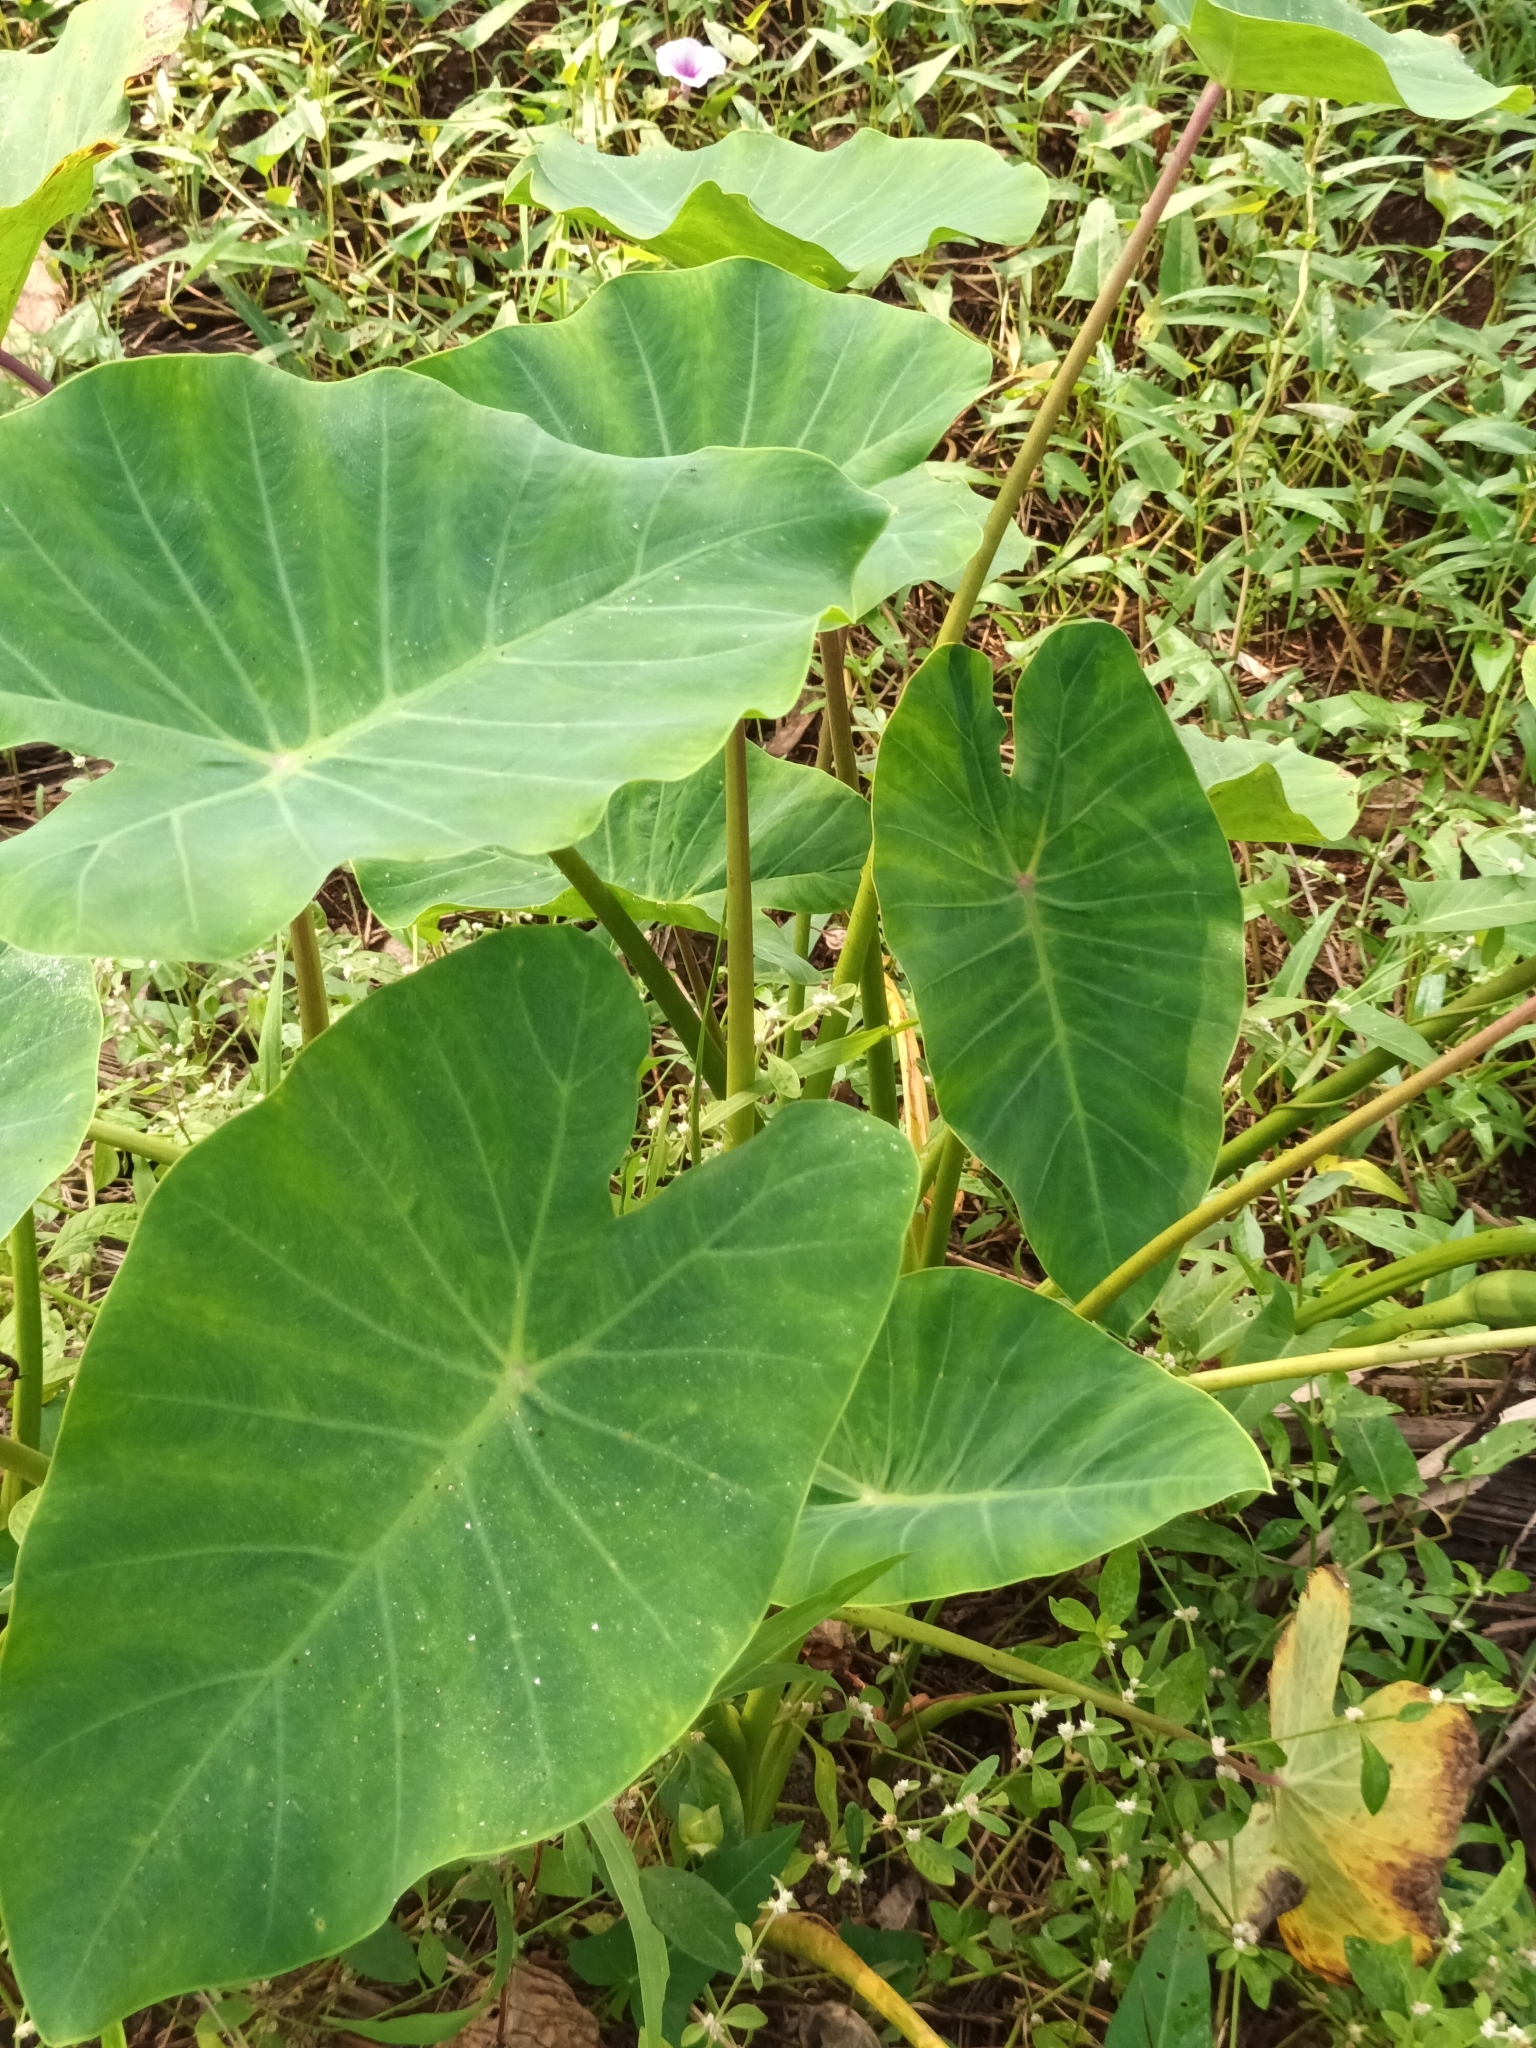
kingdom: Plantae
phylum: Tracheophyta
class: Liliopsida
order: Alismatales
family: Araceae
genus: Colocasia
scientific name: Colocasia esculenta
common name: Taro
